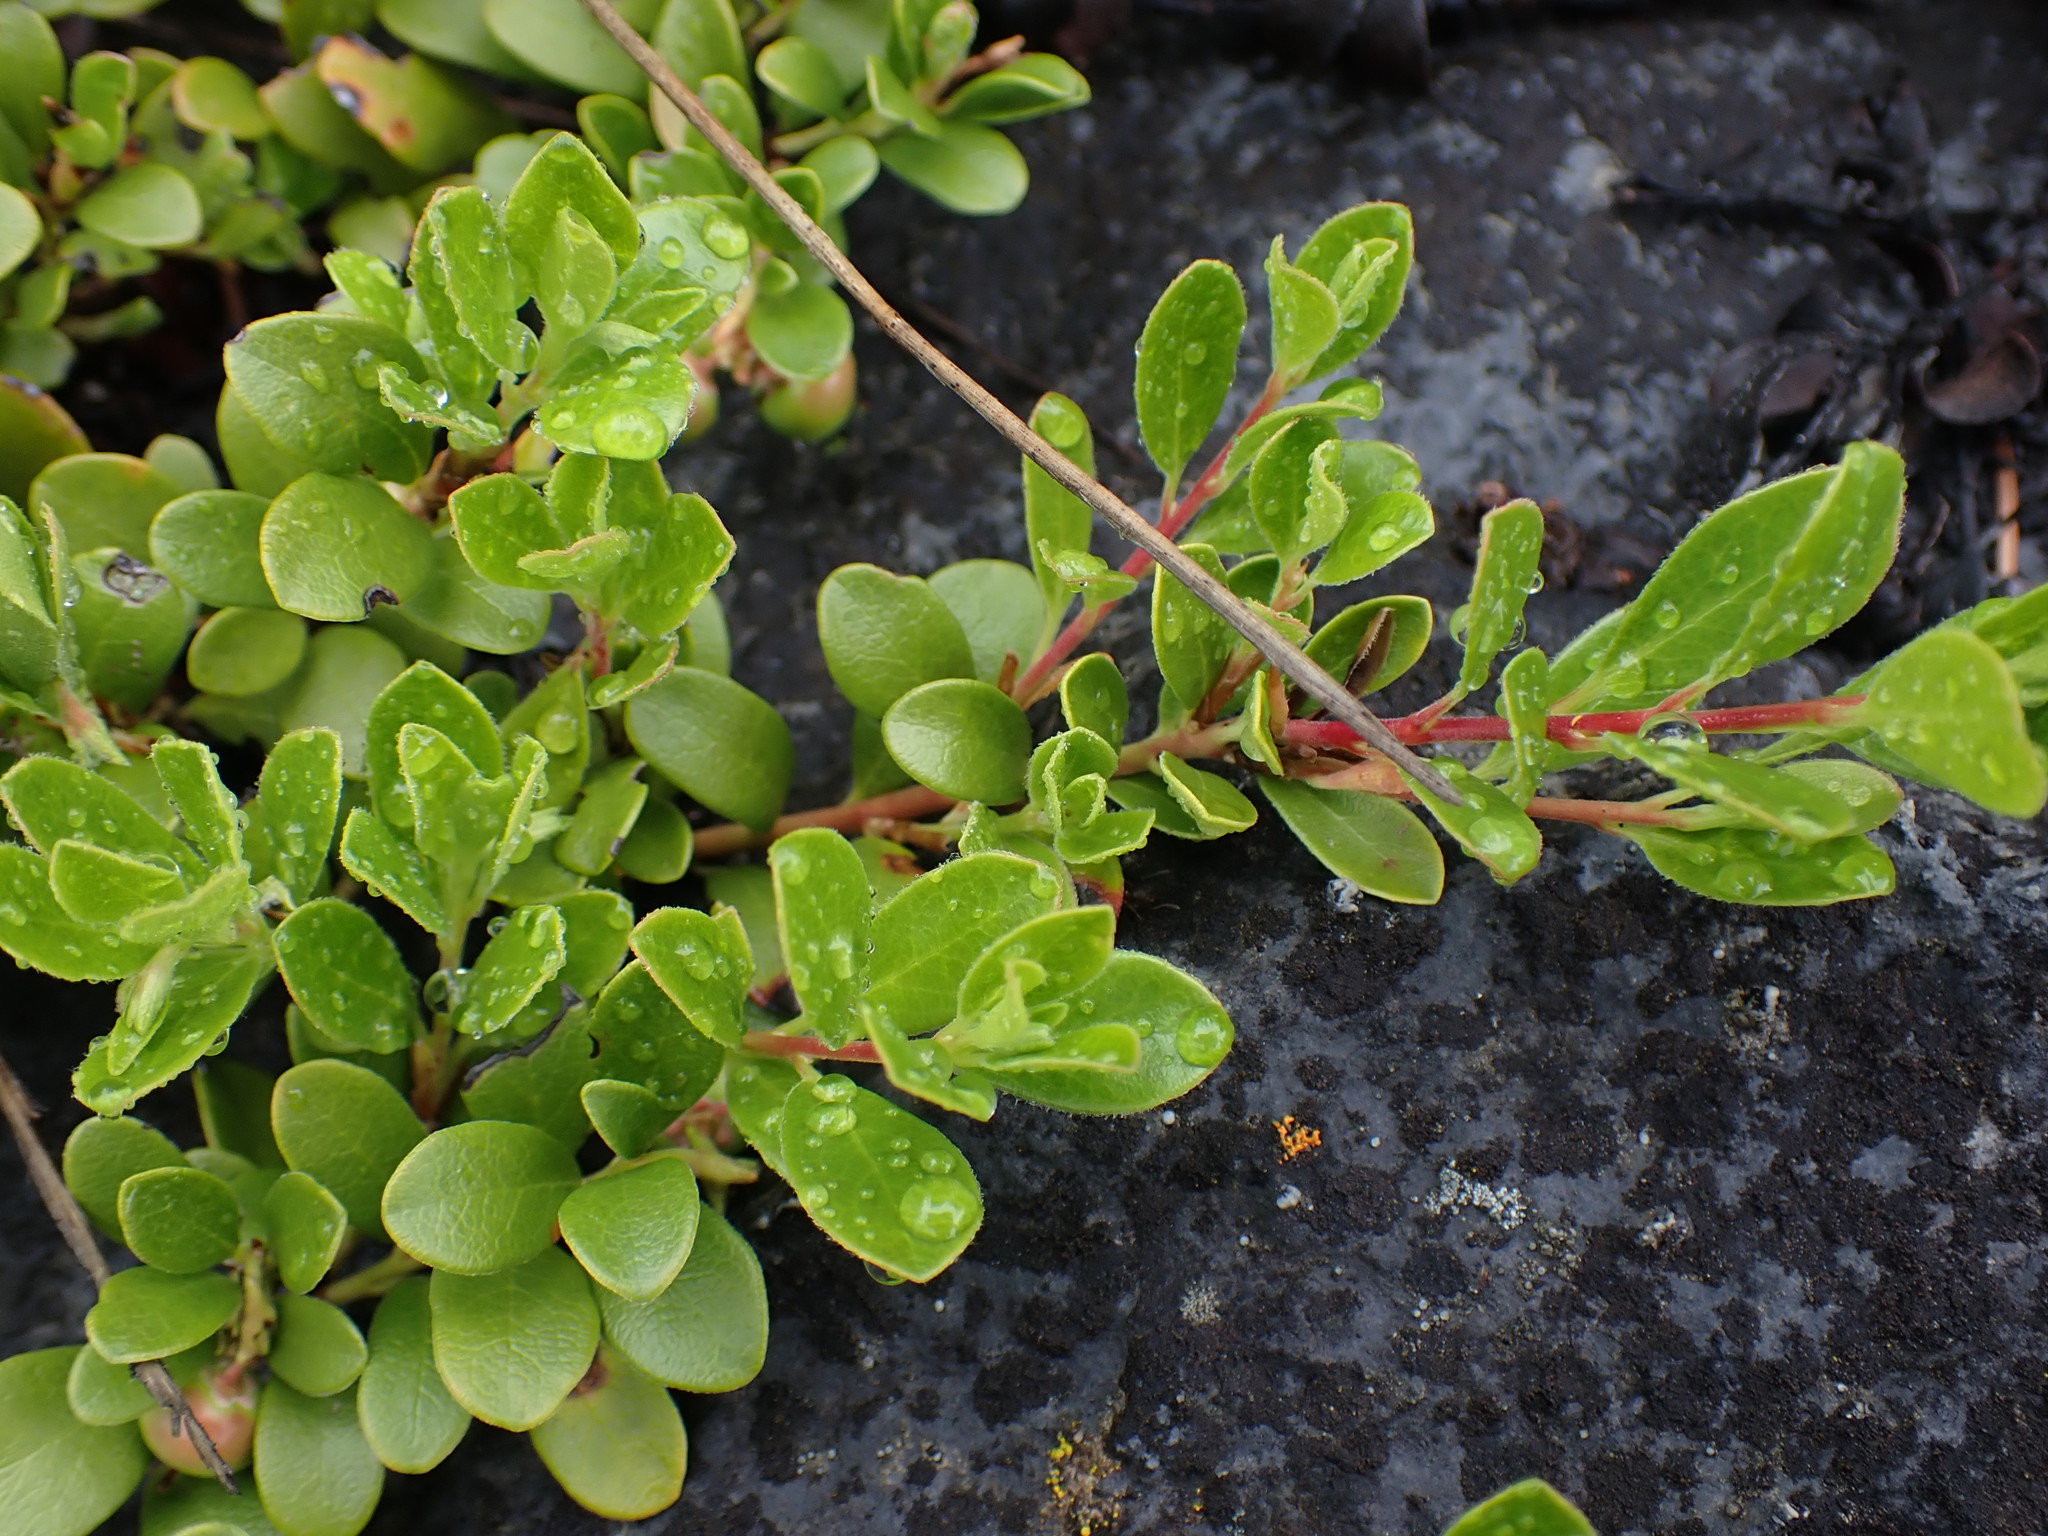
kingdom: Plantae
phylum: Tracheophyta
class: Magnoliopsida
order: Ericales
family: Ericaceae
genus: Arctostaphylos
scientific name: Arctostaphylos uva-ursi
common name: Bearberry
